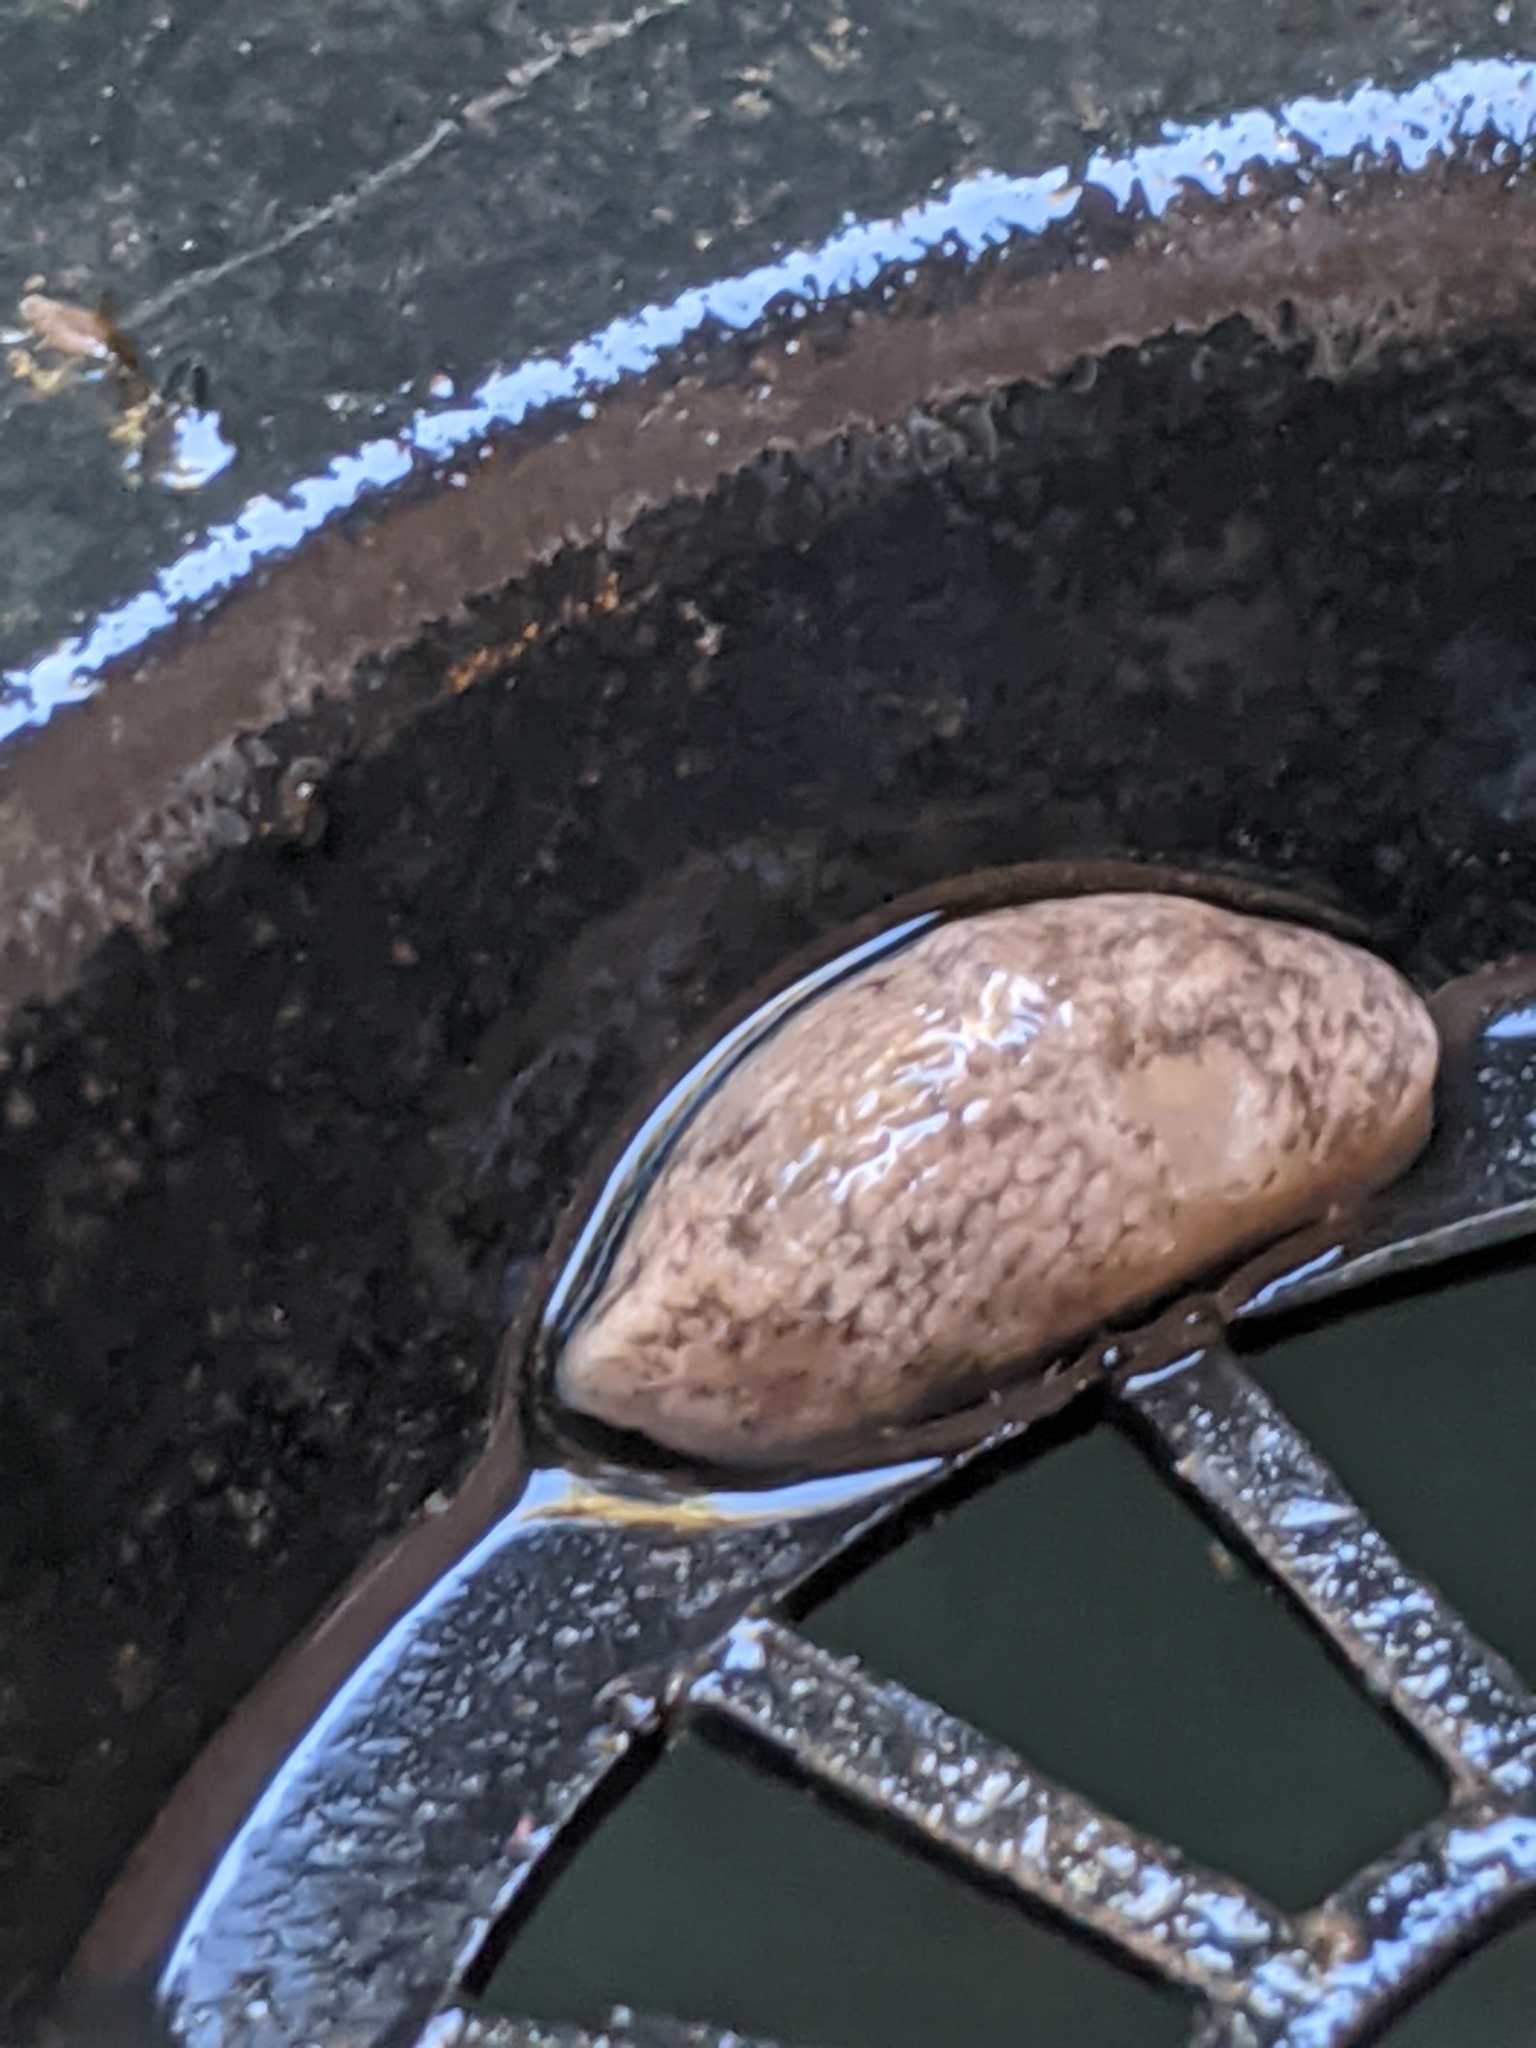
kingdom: Animalia
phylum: Mollusca
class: Gastropoda
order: Stylommatophora
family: Agriolimacidae
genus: Deroceras
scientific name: Deroceras reticulatum
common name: Gray field slug
